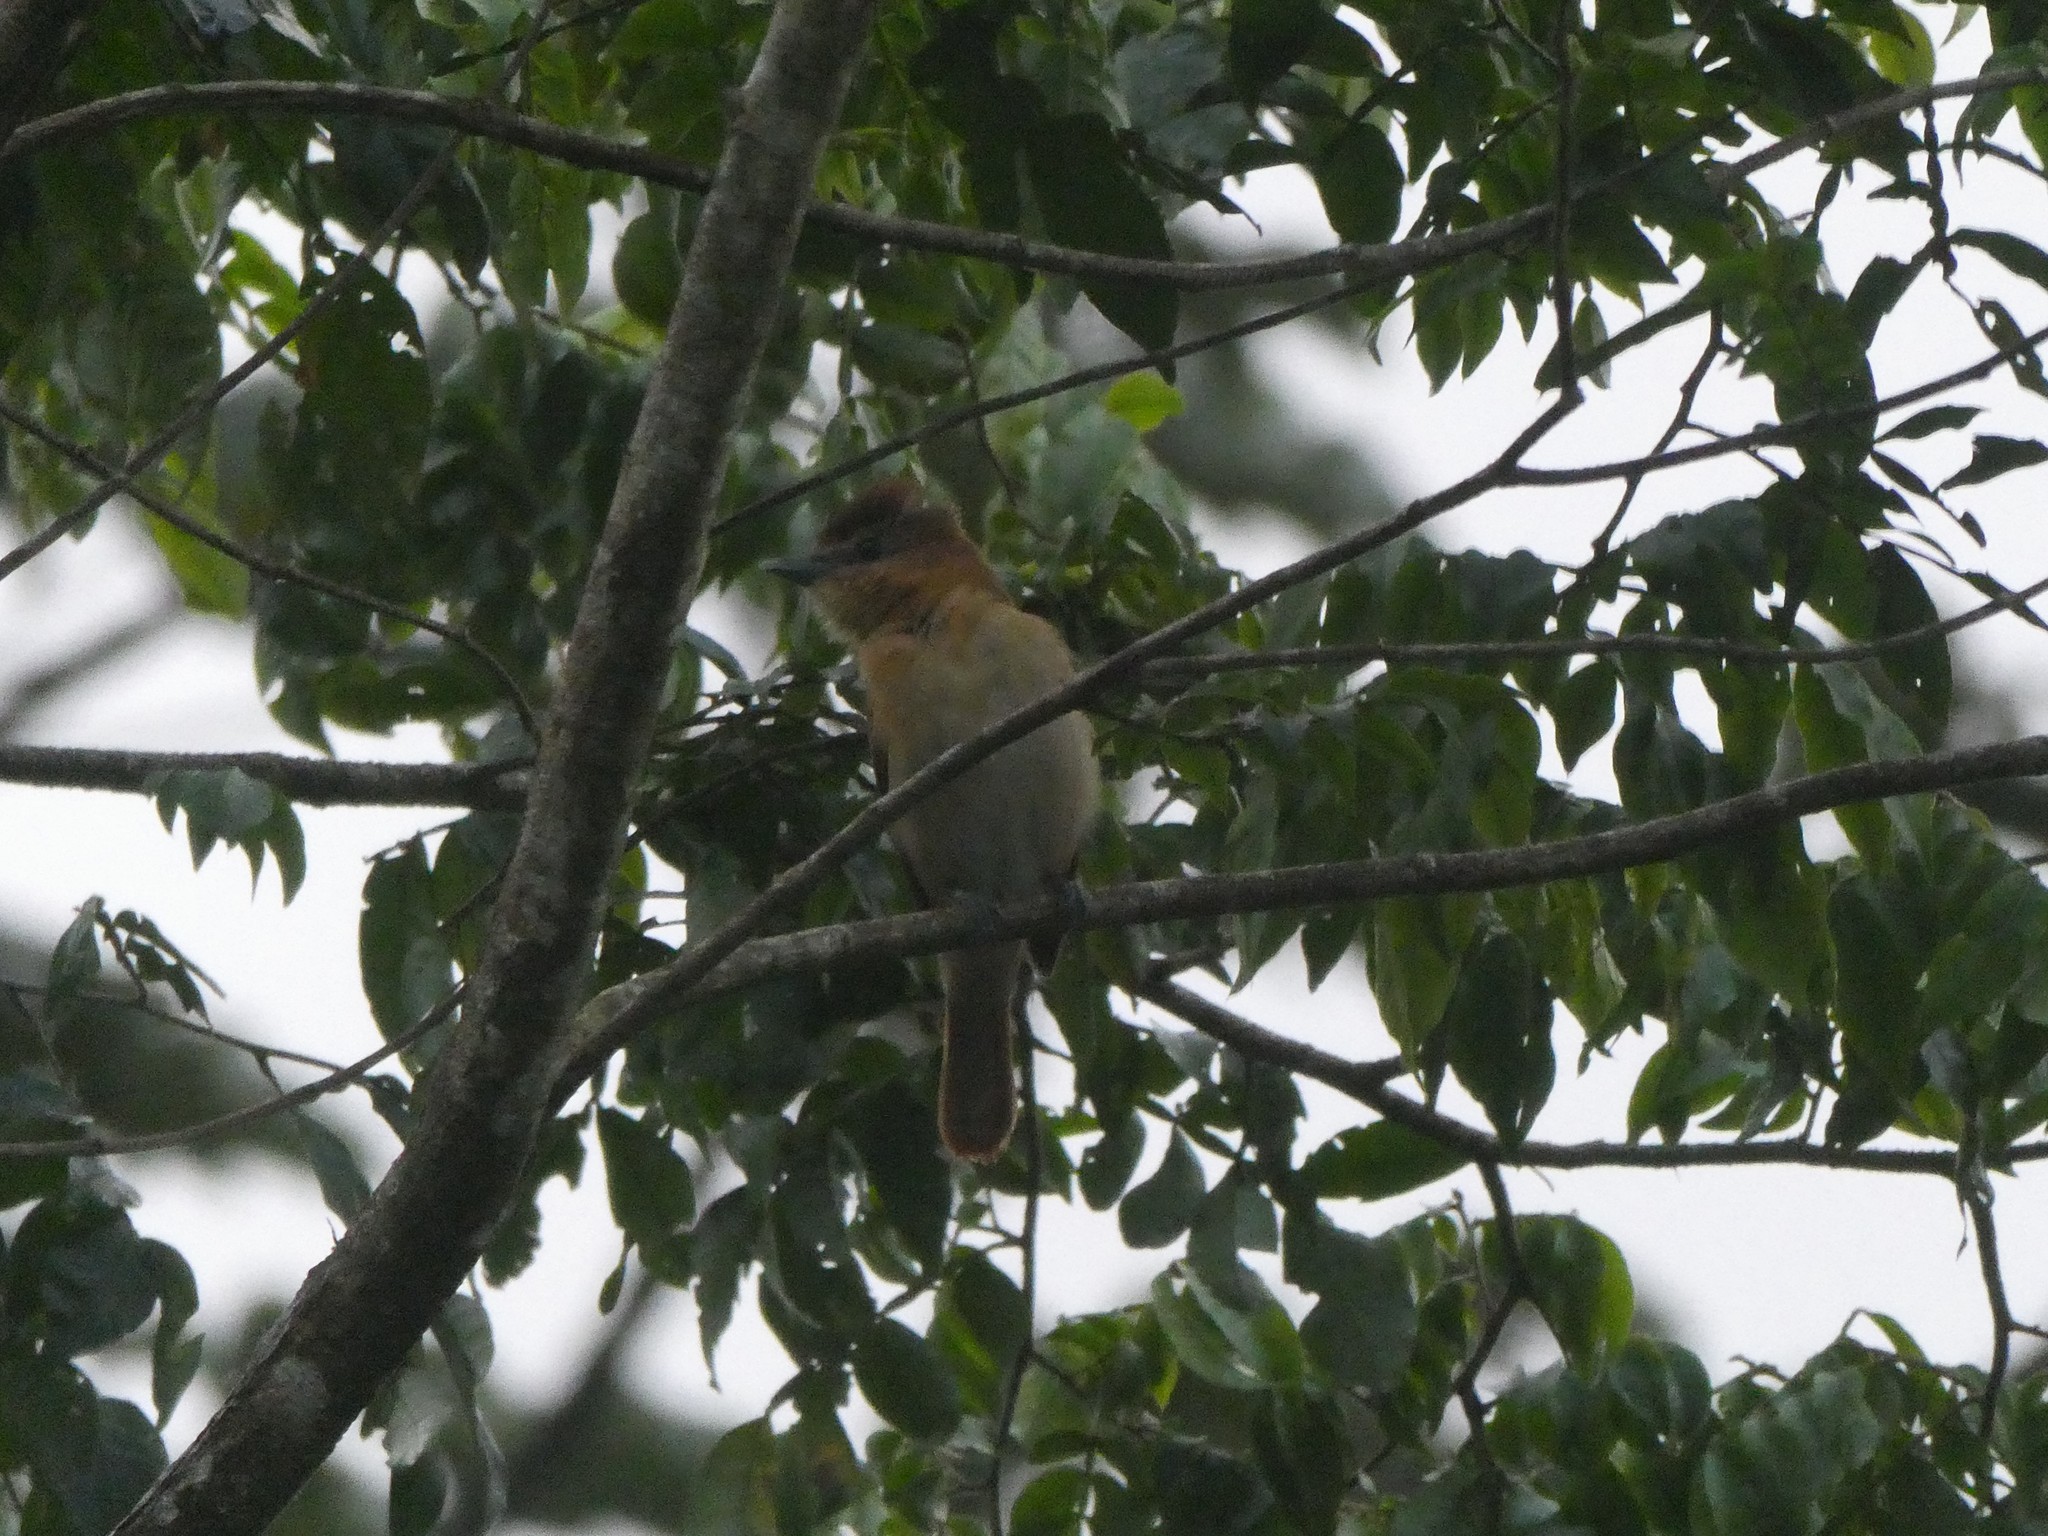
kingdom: Animalia
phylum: Chordata
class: Aves
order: Passeriformes
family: Cotingidae
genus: Pachyramphus
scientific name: Pachyramphus cinnamomeus
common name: Cinnamon becard
